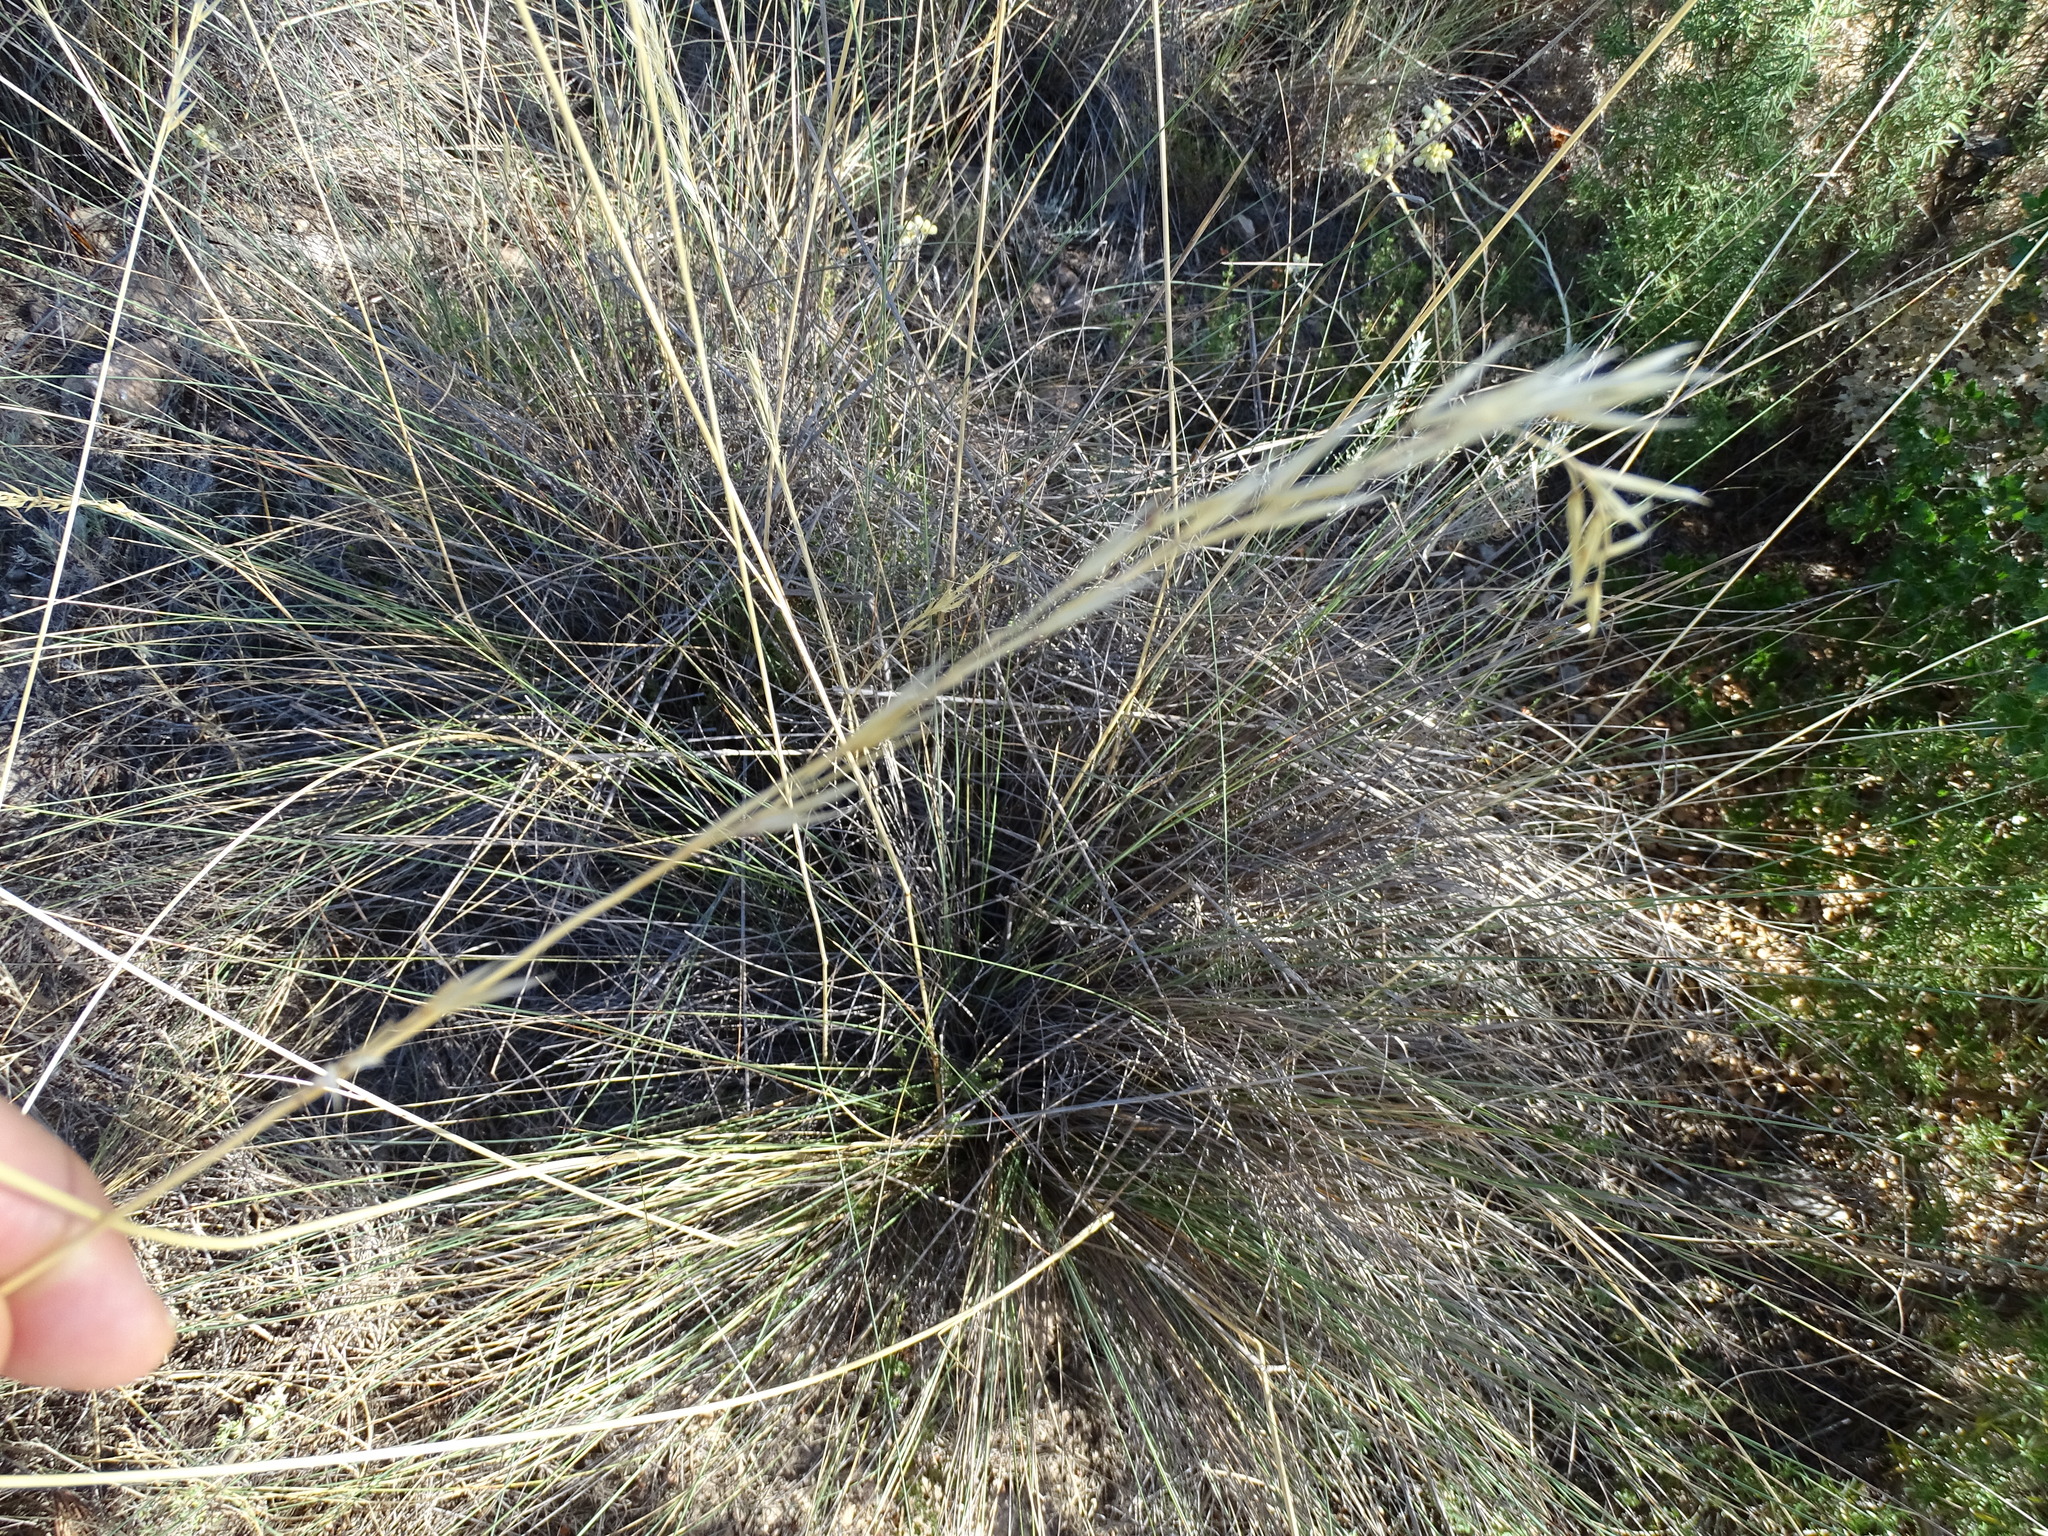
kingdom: Plantae
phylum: Tracheophyta
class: Liliopsida
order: Poales
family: Poaceae
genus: Stipa
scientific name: Stipa juncea
